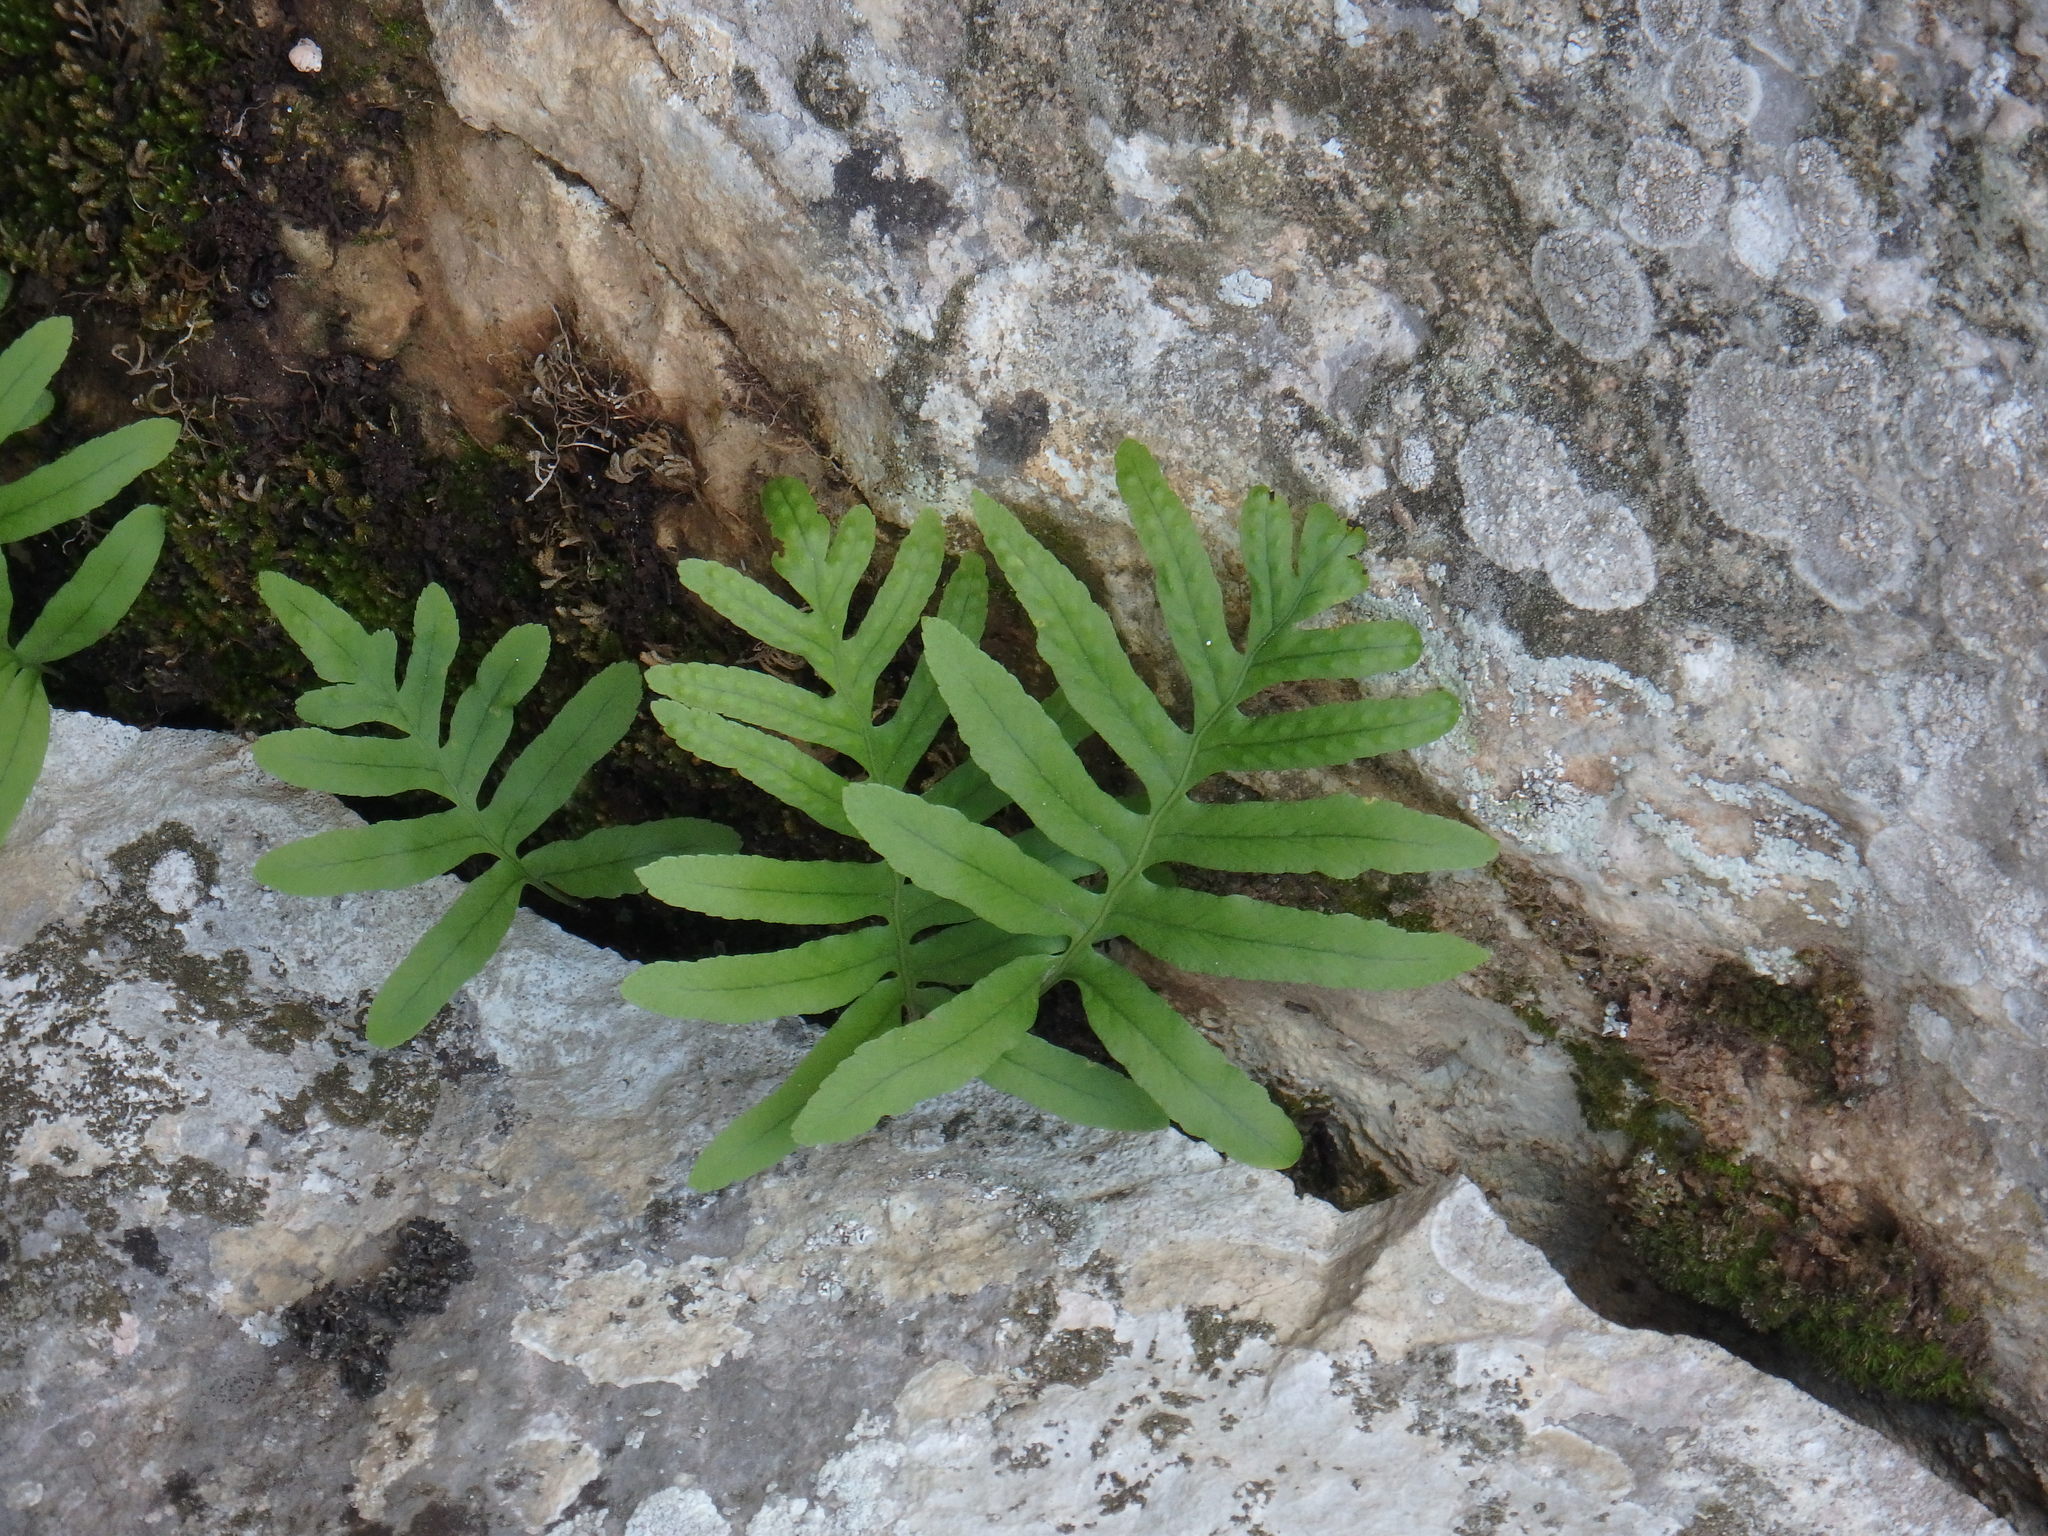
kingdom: Plantae
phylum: Tracheophyta
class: Polypodiopsida
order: Polypodiales
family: Polypodiaceae
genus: Polypodium
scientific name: Polypodium cambricum
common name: Southern polypody
